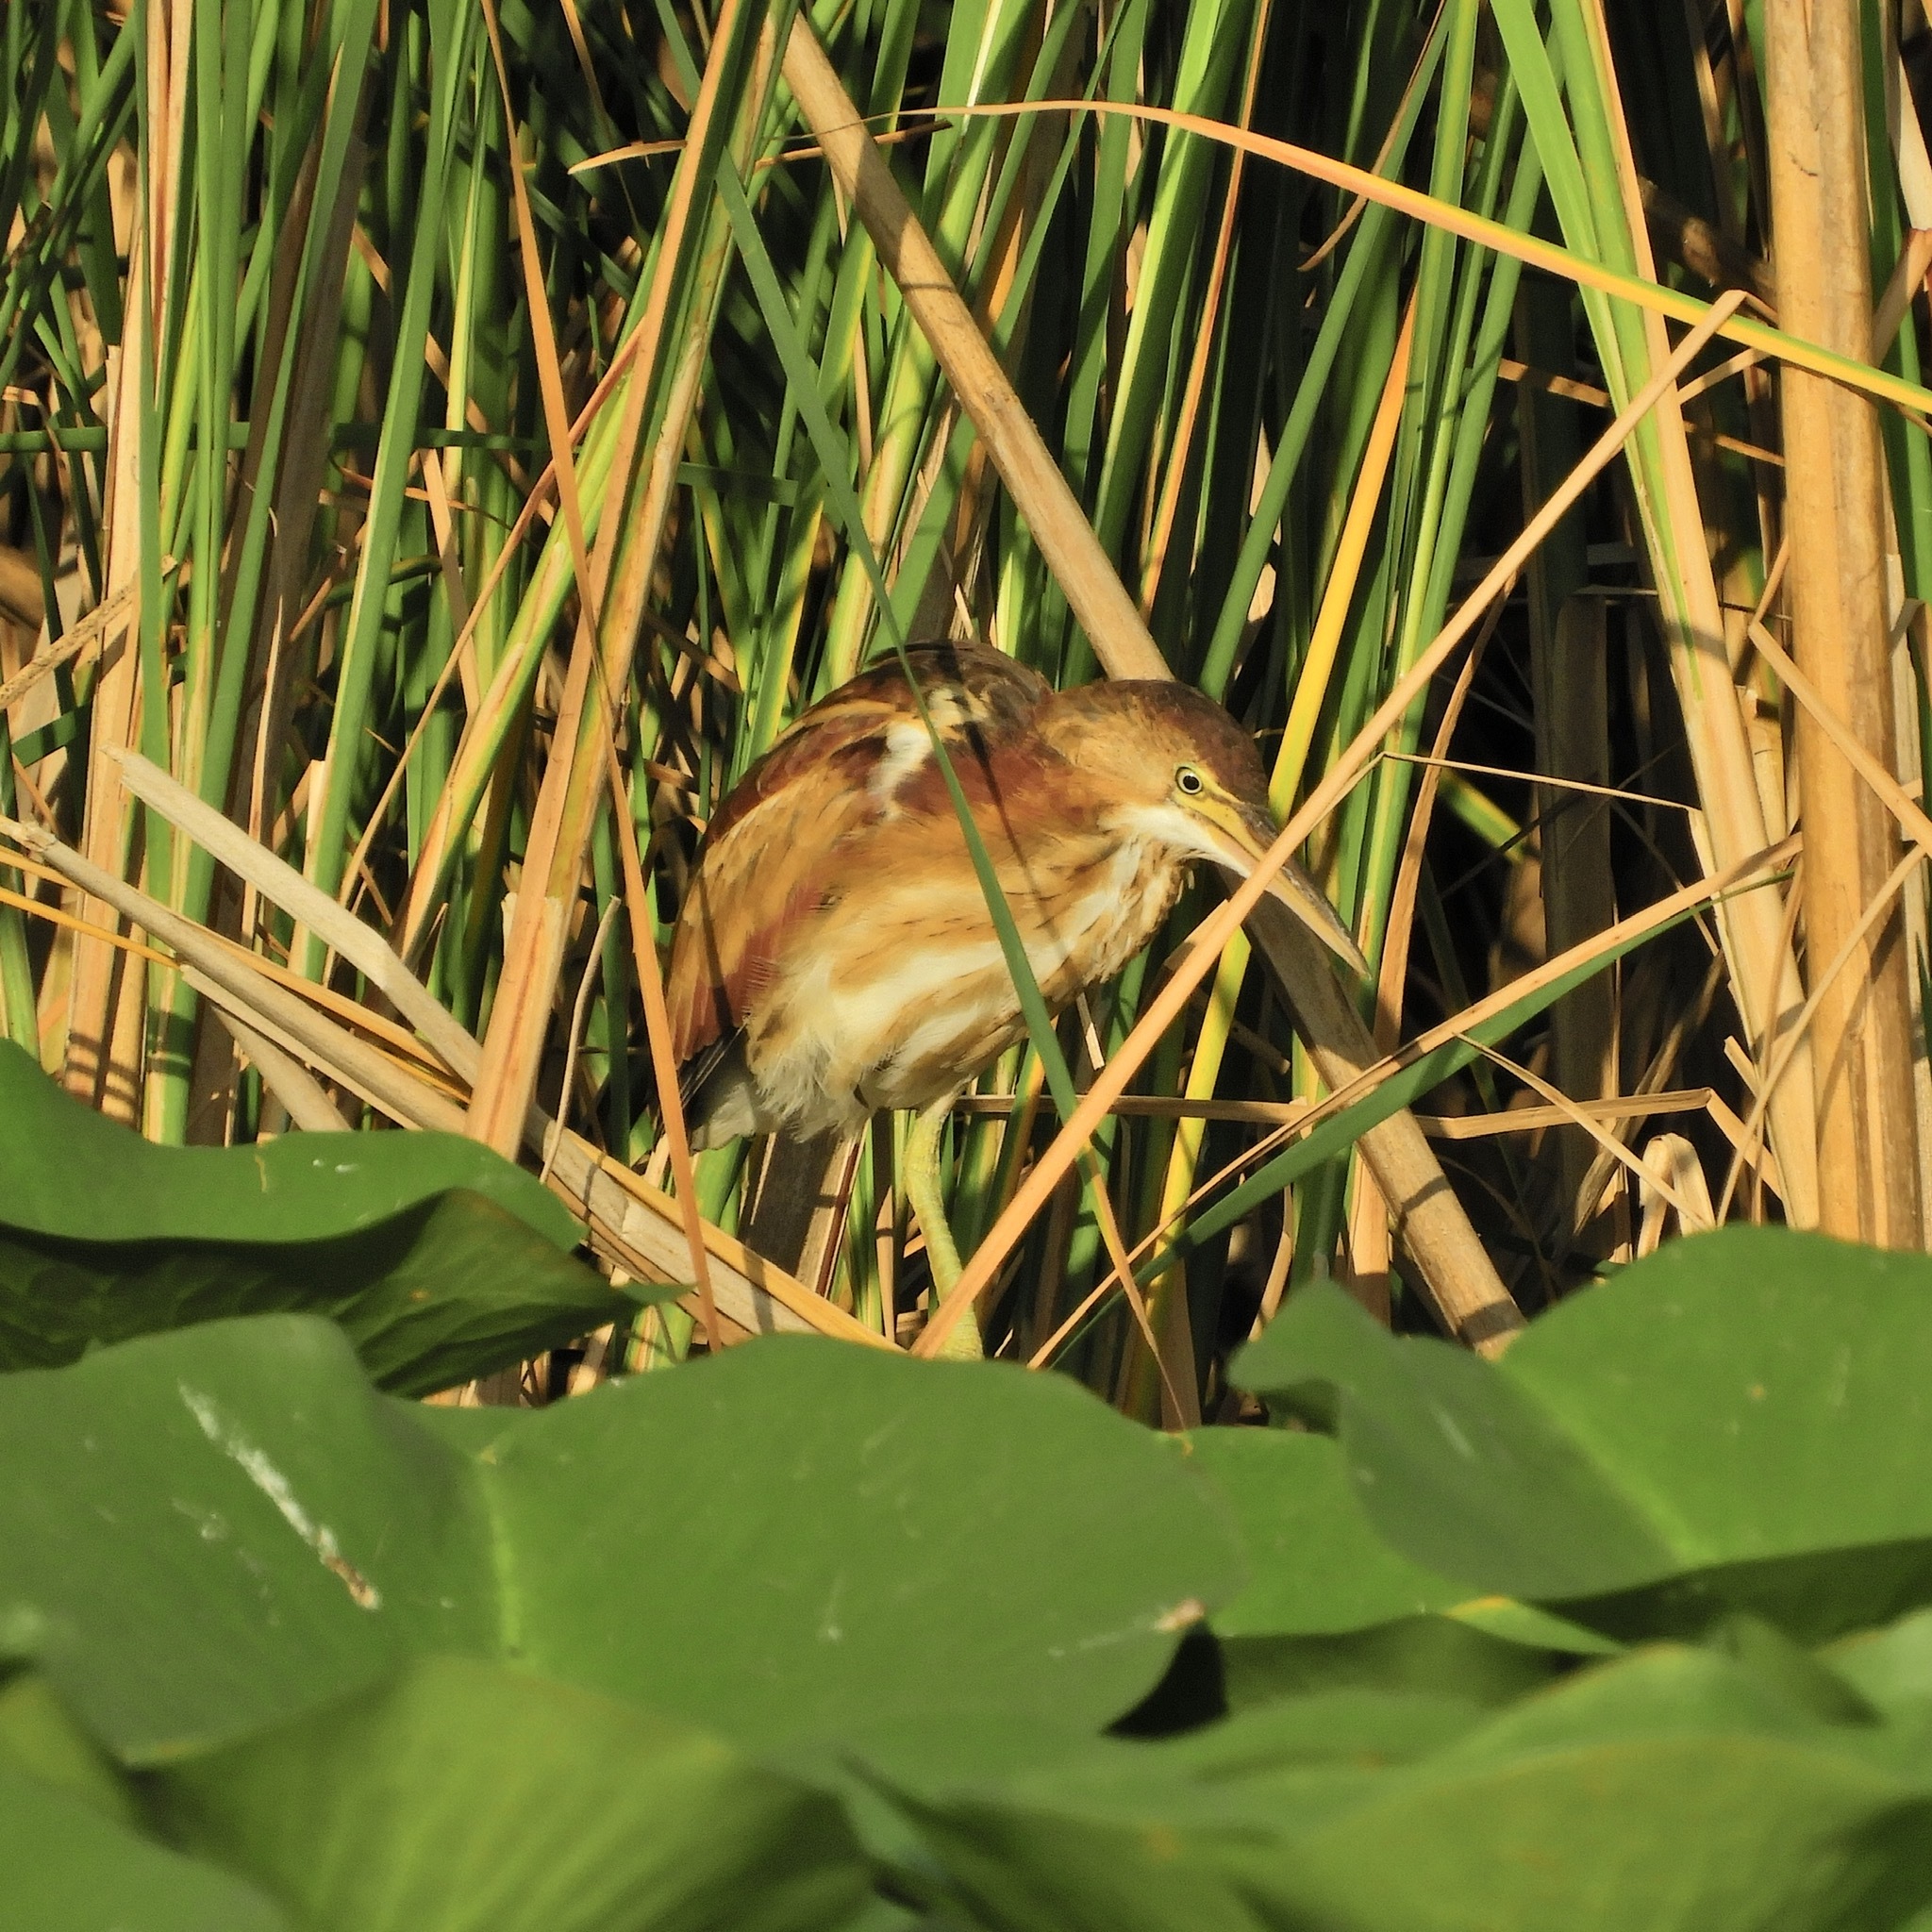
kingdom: Animalia
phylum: Chordata
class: Aves
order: Pelecaniformes
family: Ardeidae
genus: Ixobrychus
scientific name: Ixobrychus exilis
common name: Least bittern
